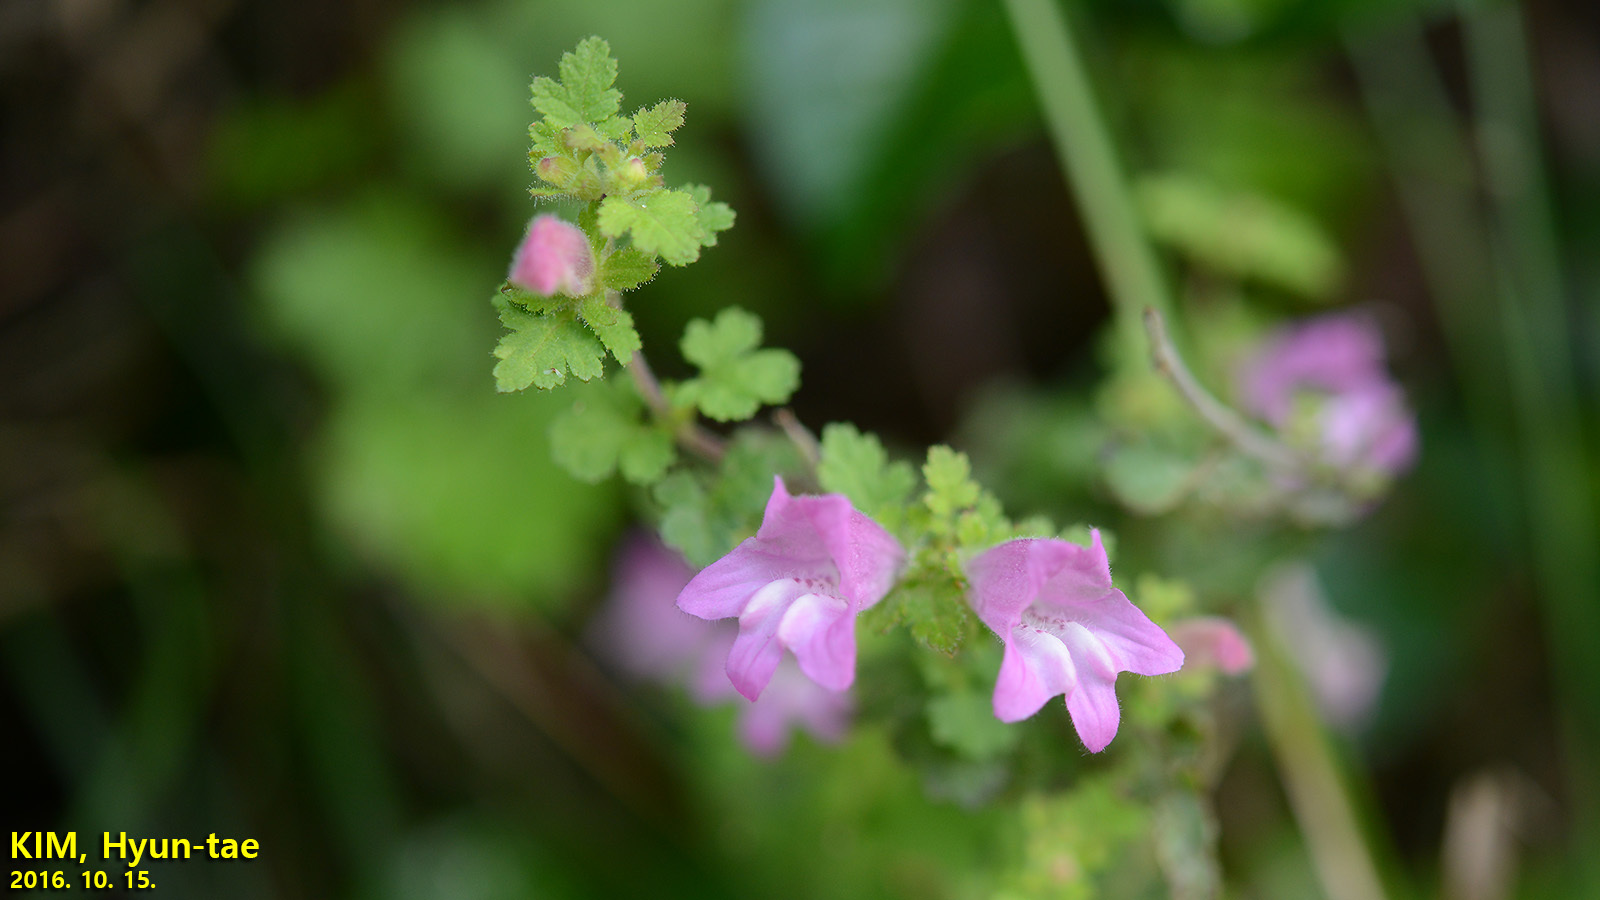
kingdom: Plantae
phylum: Tracheophyta
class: Magnoliopsida
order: Lamiales
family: Orobanchaceae
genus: Phtheirospermum
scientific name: Phtheirospermum japonicum
